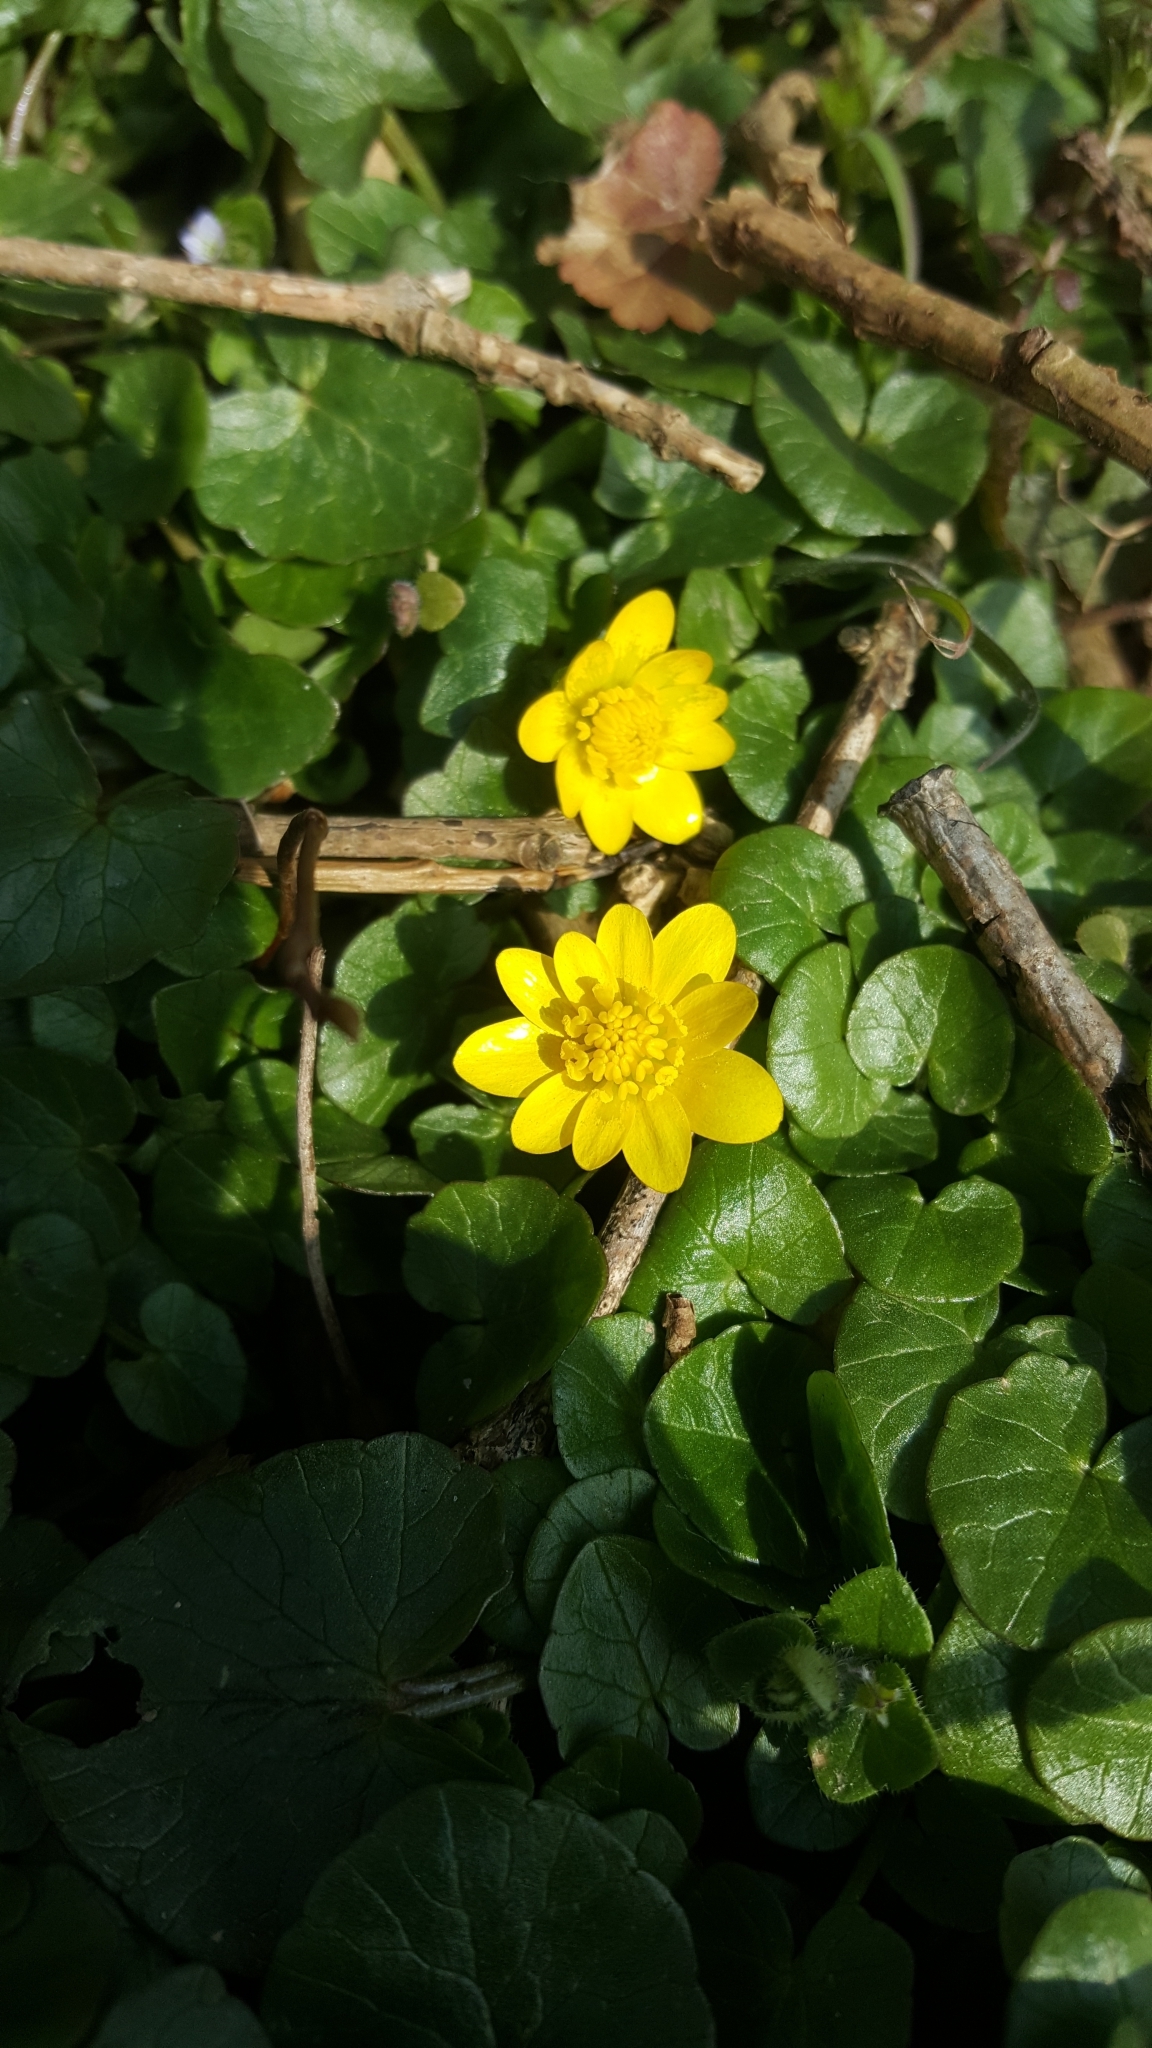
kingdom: Plantae
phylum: Tracheophyta
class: Magnoliopsida
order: Ranunculales
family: Ranunculaceae
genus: Ficaria
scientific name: Ficaria verna
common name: Lesser celandine
